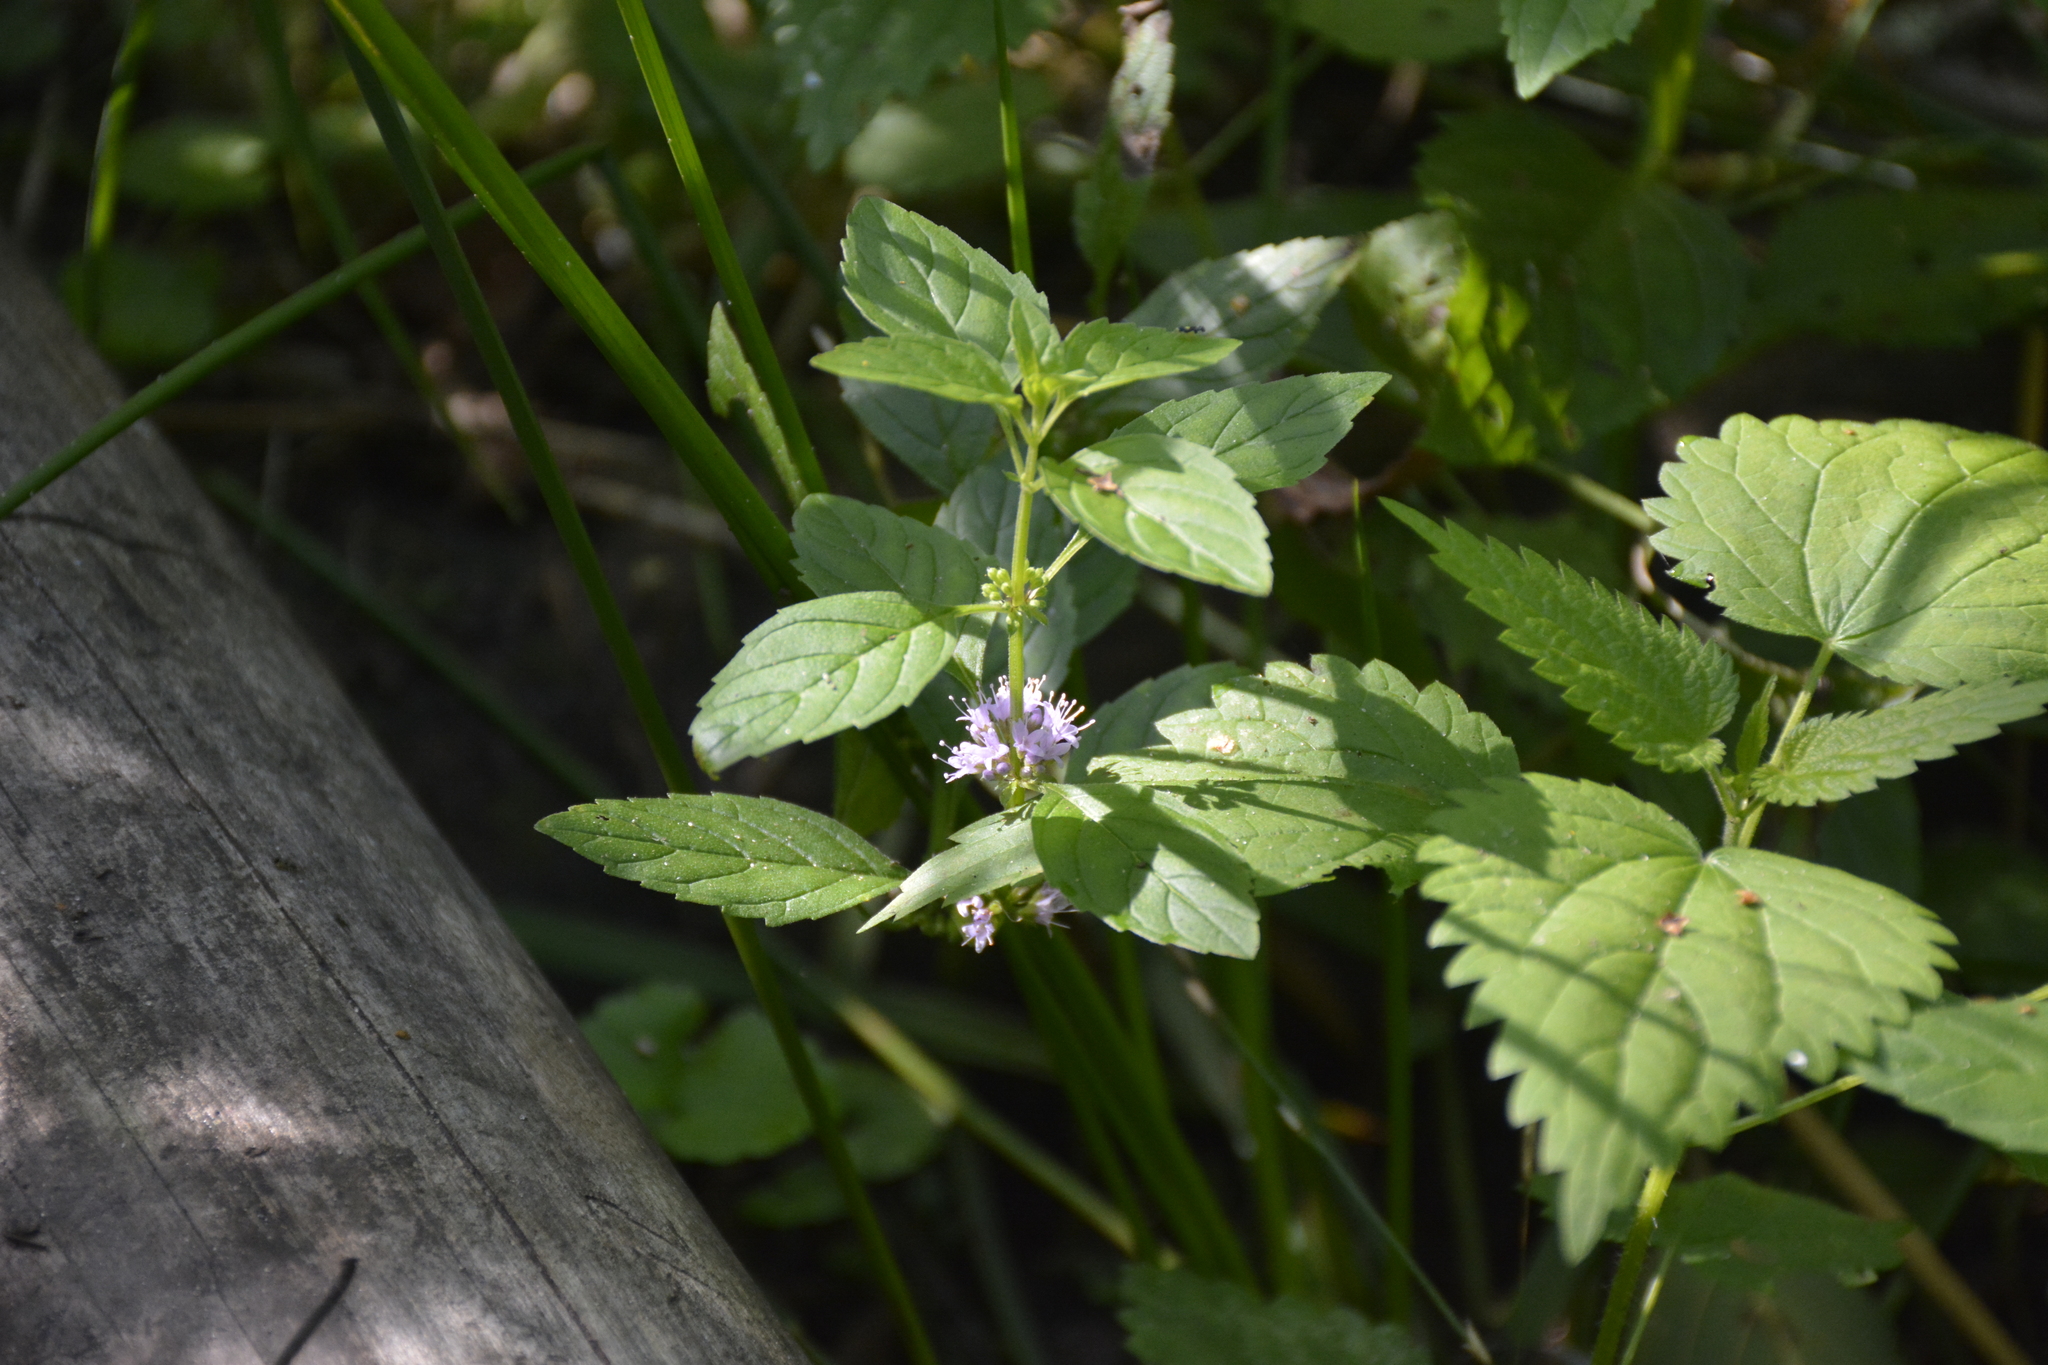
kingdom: Plantae
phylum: Tracheophyta
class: Magnoliopsida
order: Lamiales
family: Lamiaceae
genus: Mentha
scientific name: Mentha arvensis
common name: Corn mint
